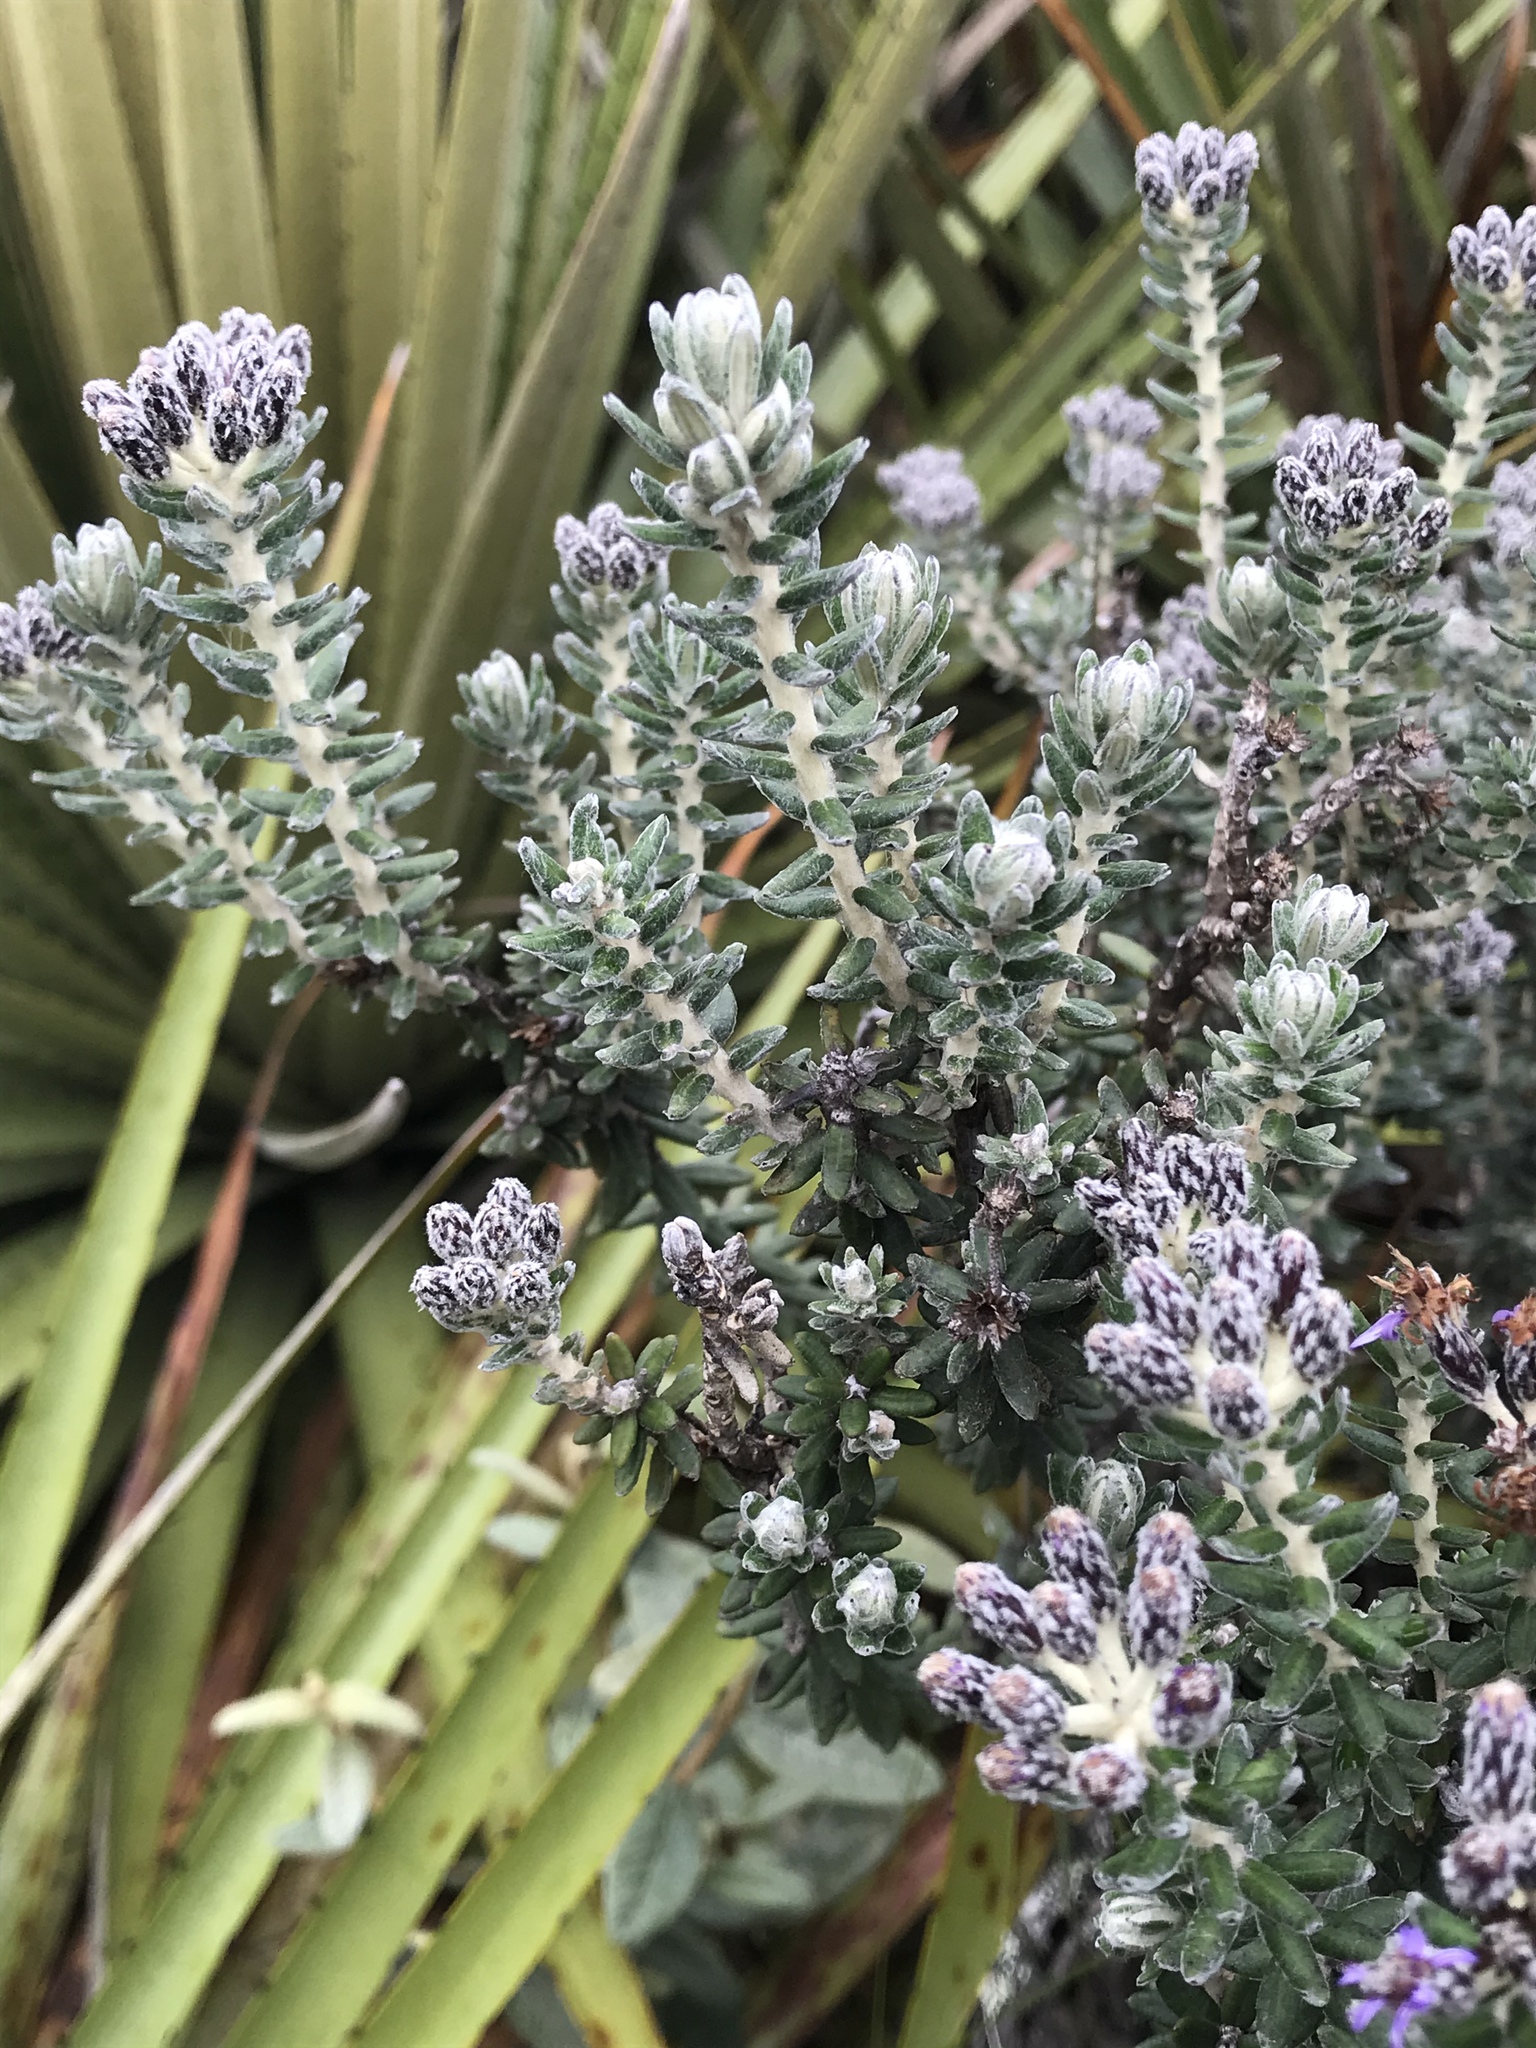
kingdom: Plantae
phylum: Tracheophyta
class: Magnoliopsida
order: Asterales
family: Asteraceae
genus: Linochilus
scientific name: Linochilus phylicoides
